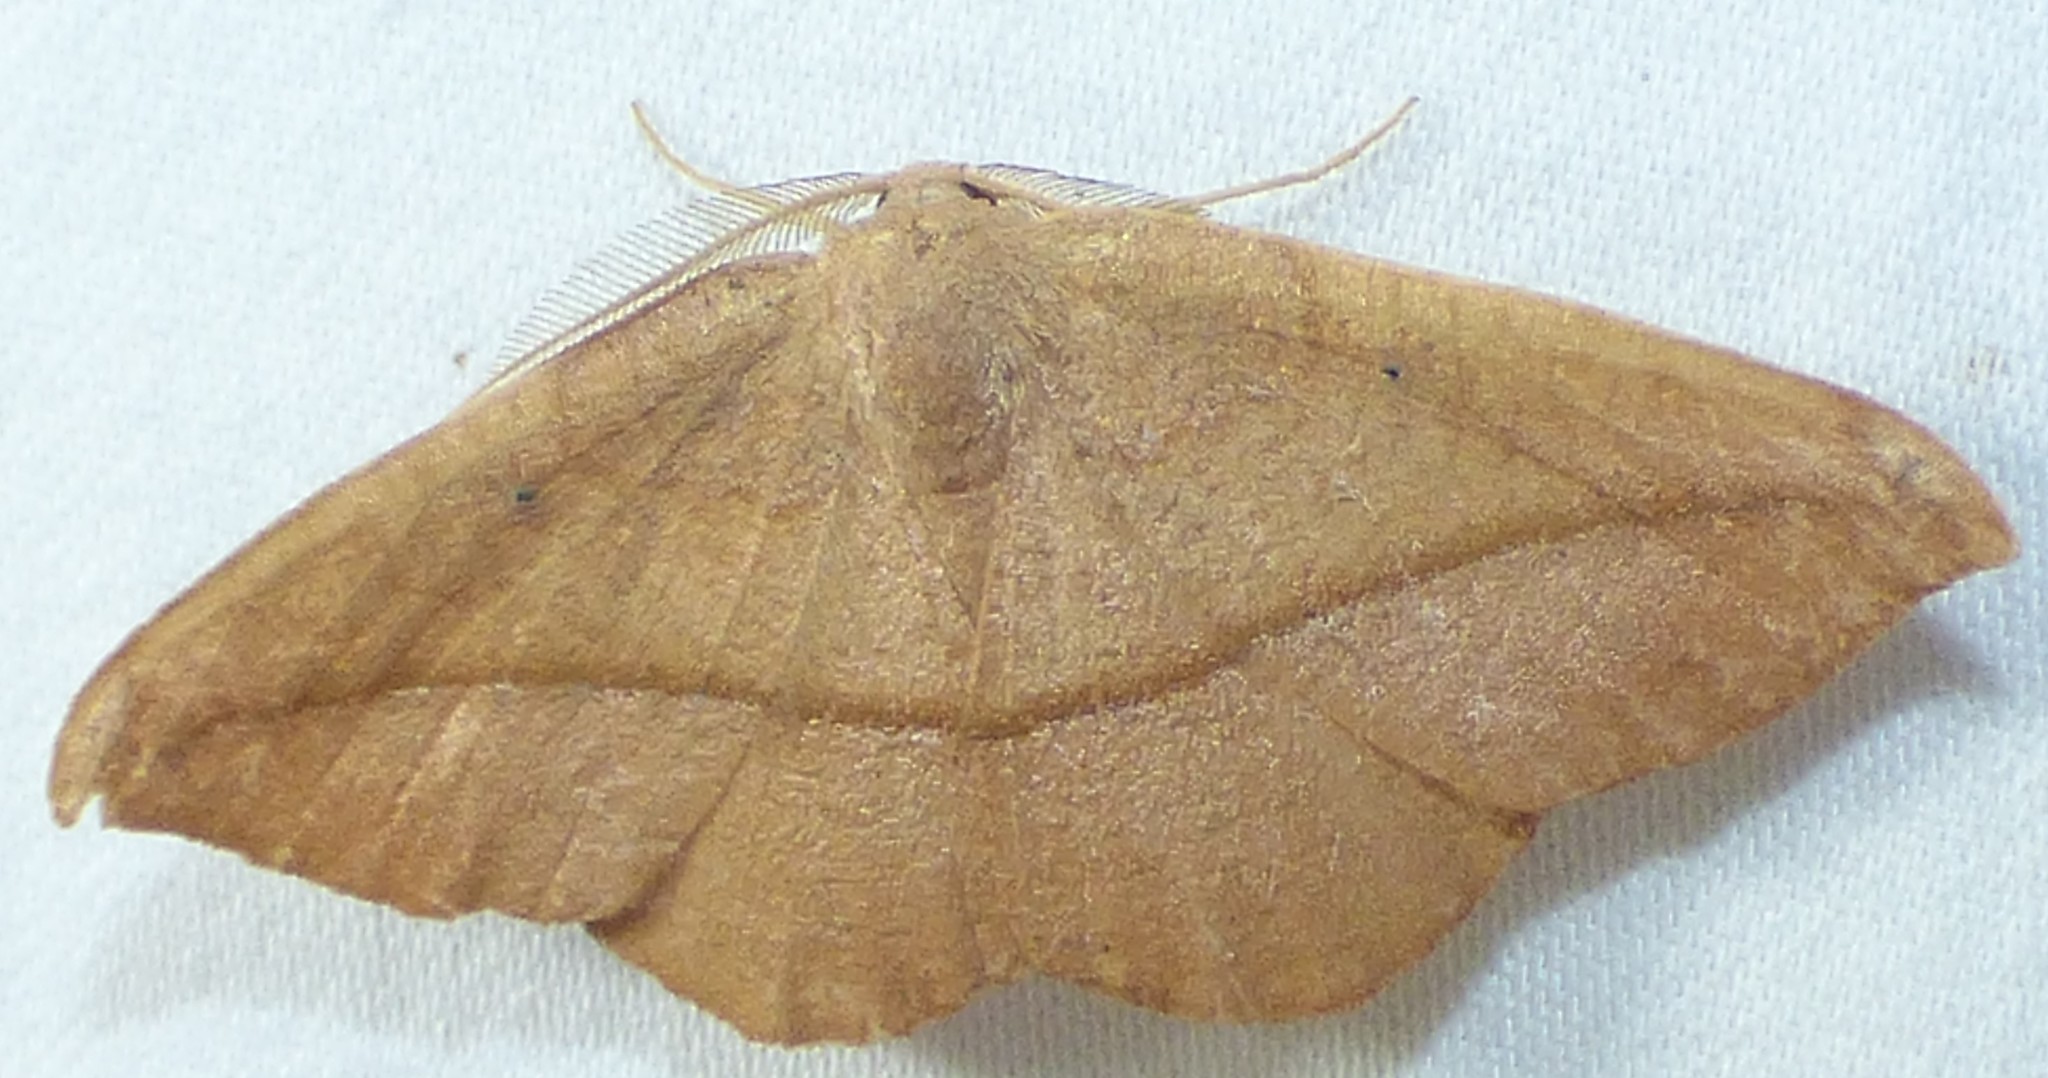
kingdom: Animalia
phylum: Arthropoda
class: Insecta
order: Lepidoptera
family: Geometridae
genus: Patalene
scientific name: Patalene olyzonaria
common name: Juniper geometer moth
